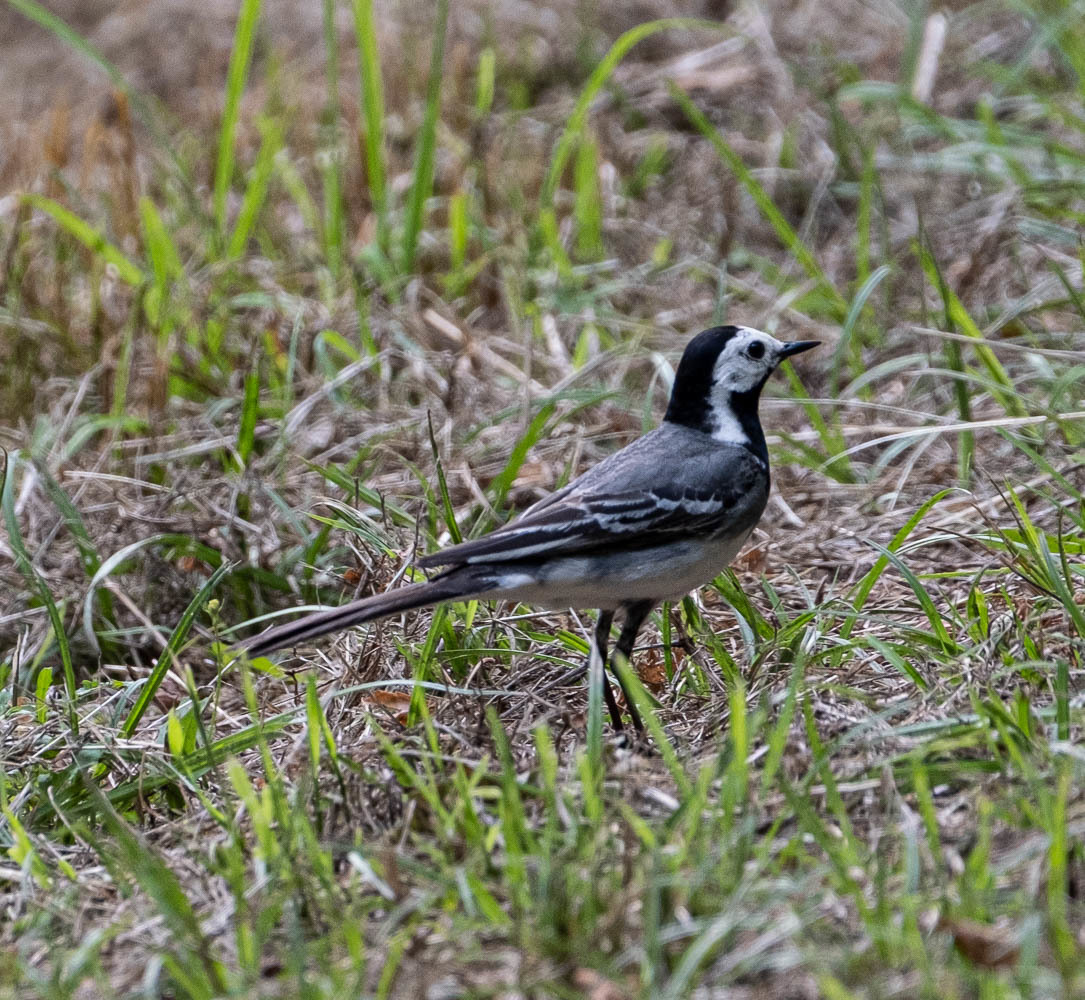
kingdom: Animalia
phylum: Chordata
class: Aves
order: Passeriformes
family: Motacillidae
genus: Motacilla
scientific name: Motacilla alba
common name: White wagtail
